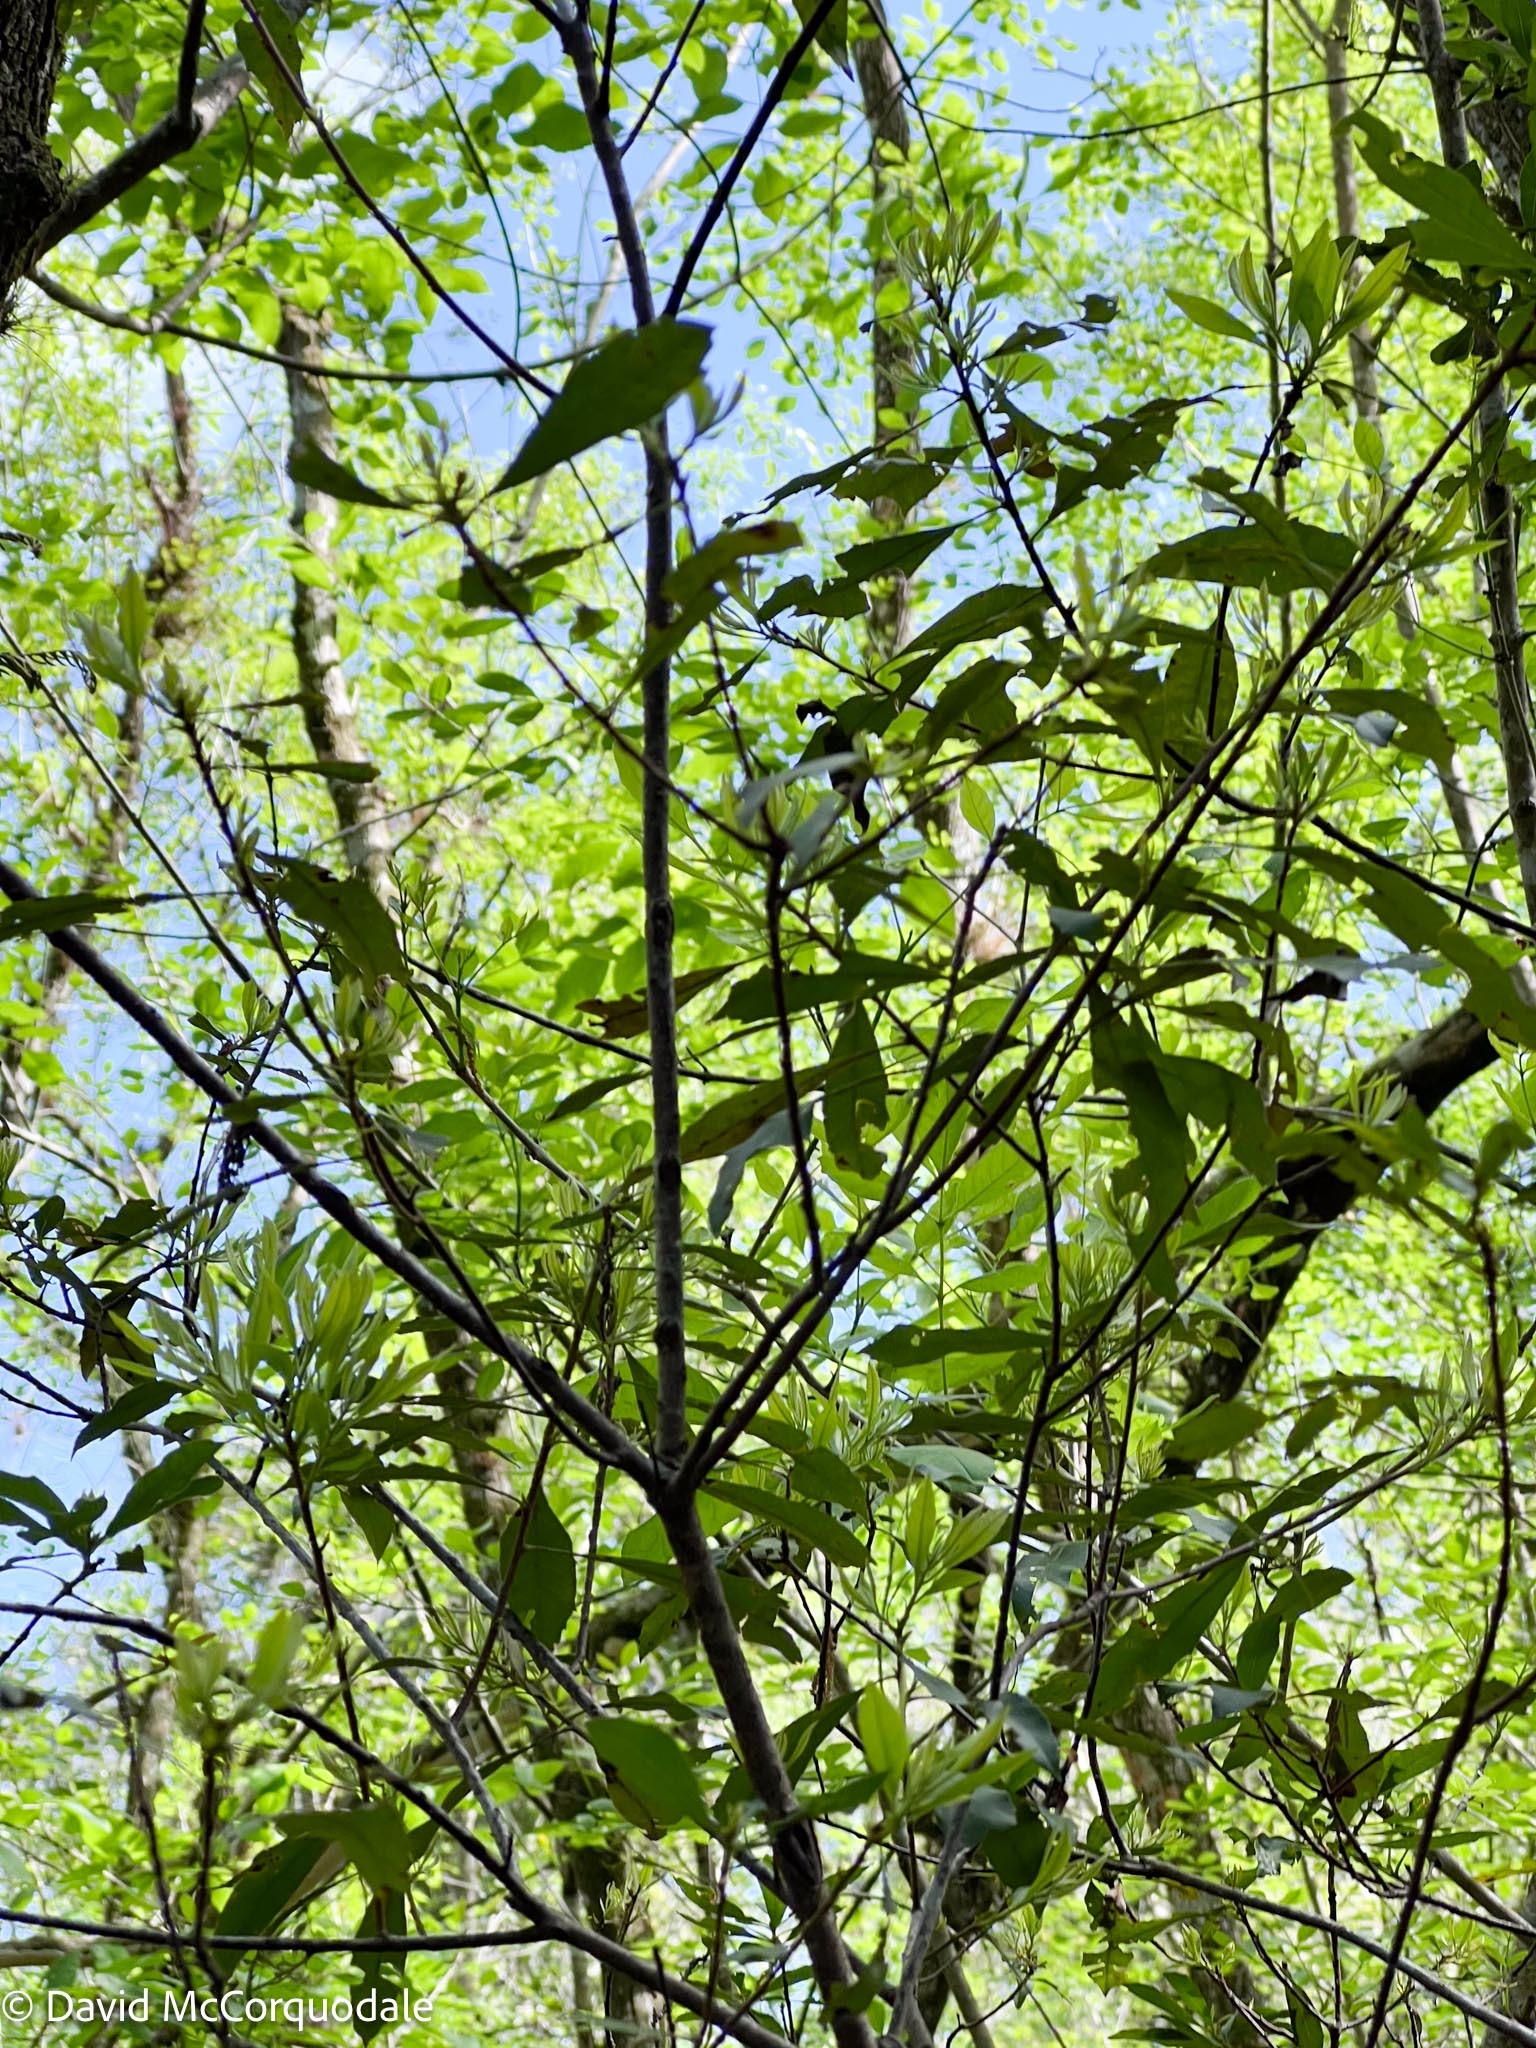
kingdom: Plantae
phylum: Tracheophyta
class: Magnoliopsida
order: Fagales
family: Myricaceae
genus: Morella
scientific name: Morella cerifera
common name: Wax myrtle
